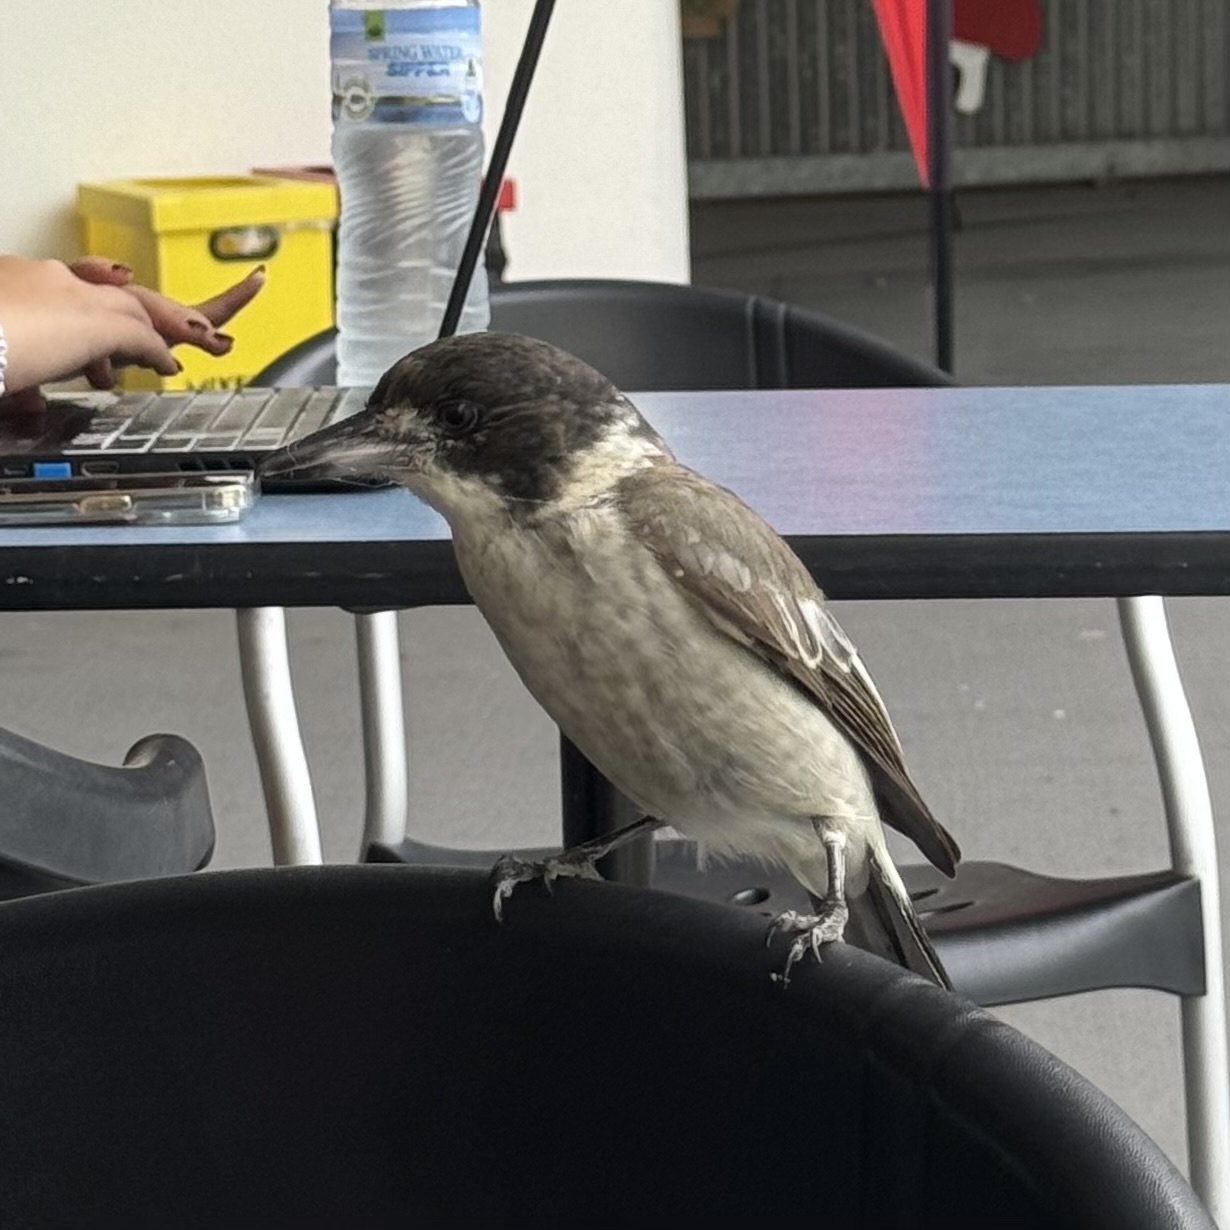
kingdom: Animalia
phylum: Chordata
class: Aves
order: Passeriformes
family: Cracticidae
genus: Cracticus
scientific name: Cracticus torquatus
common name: Grey butcherbird
